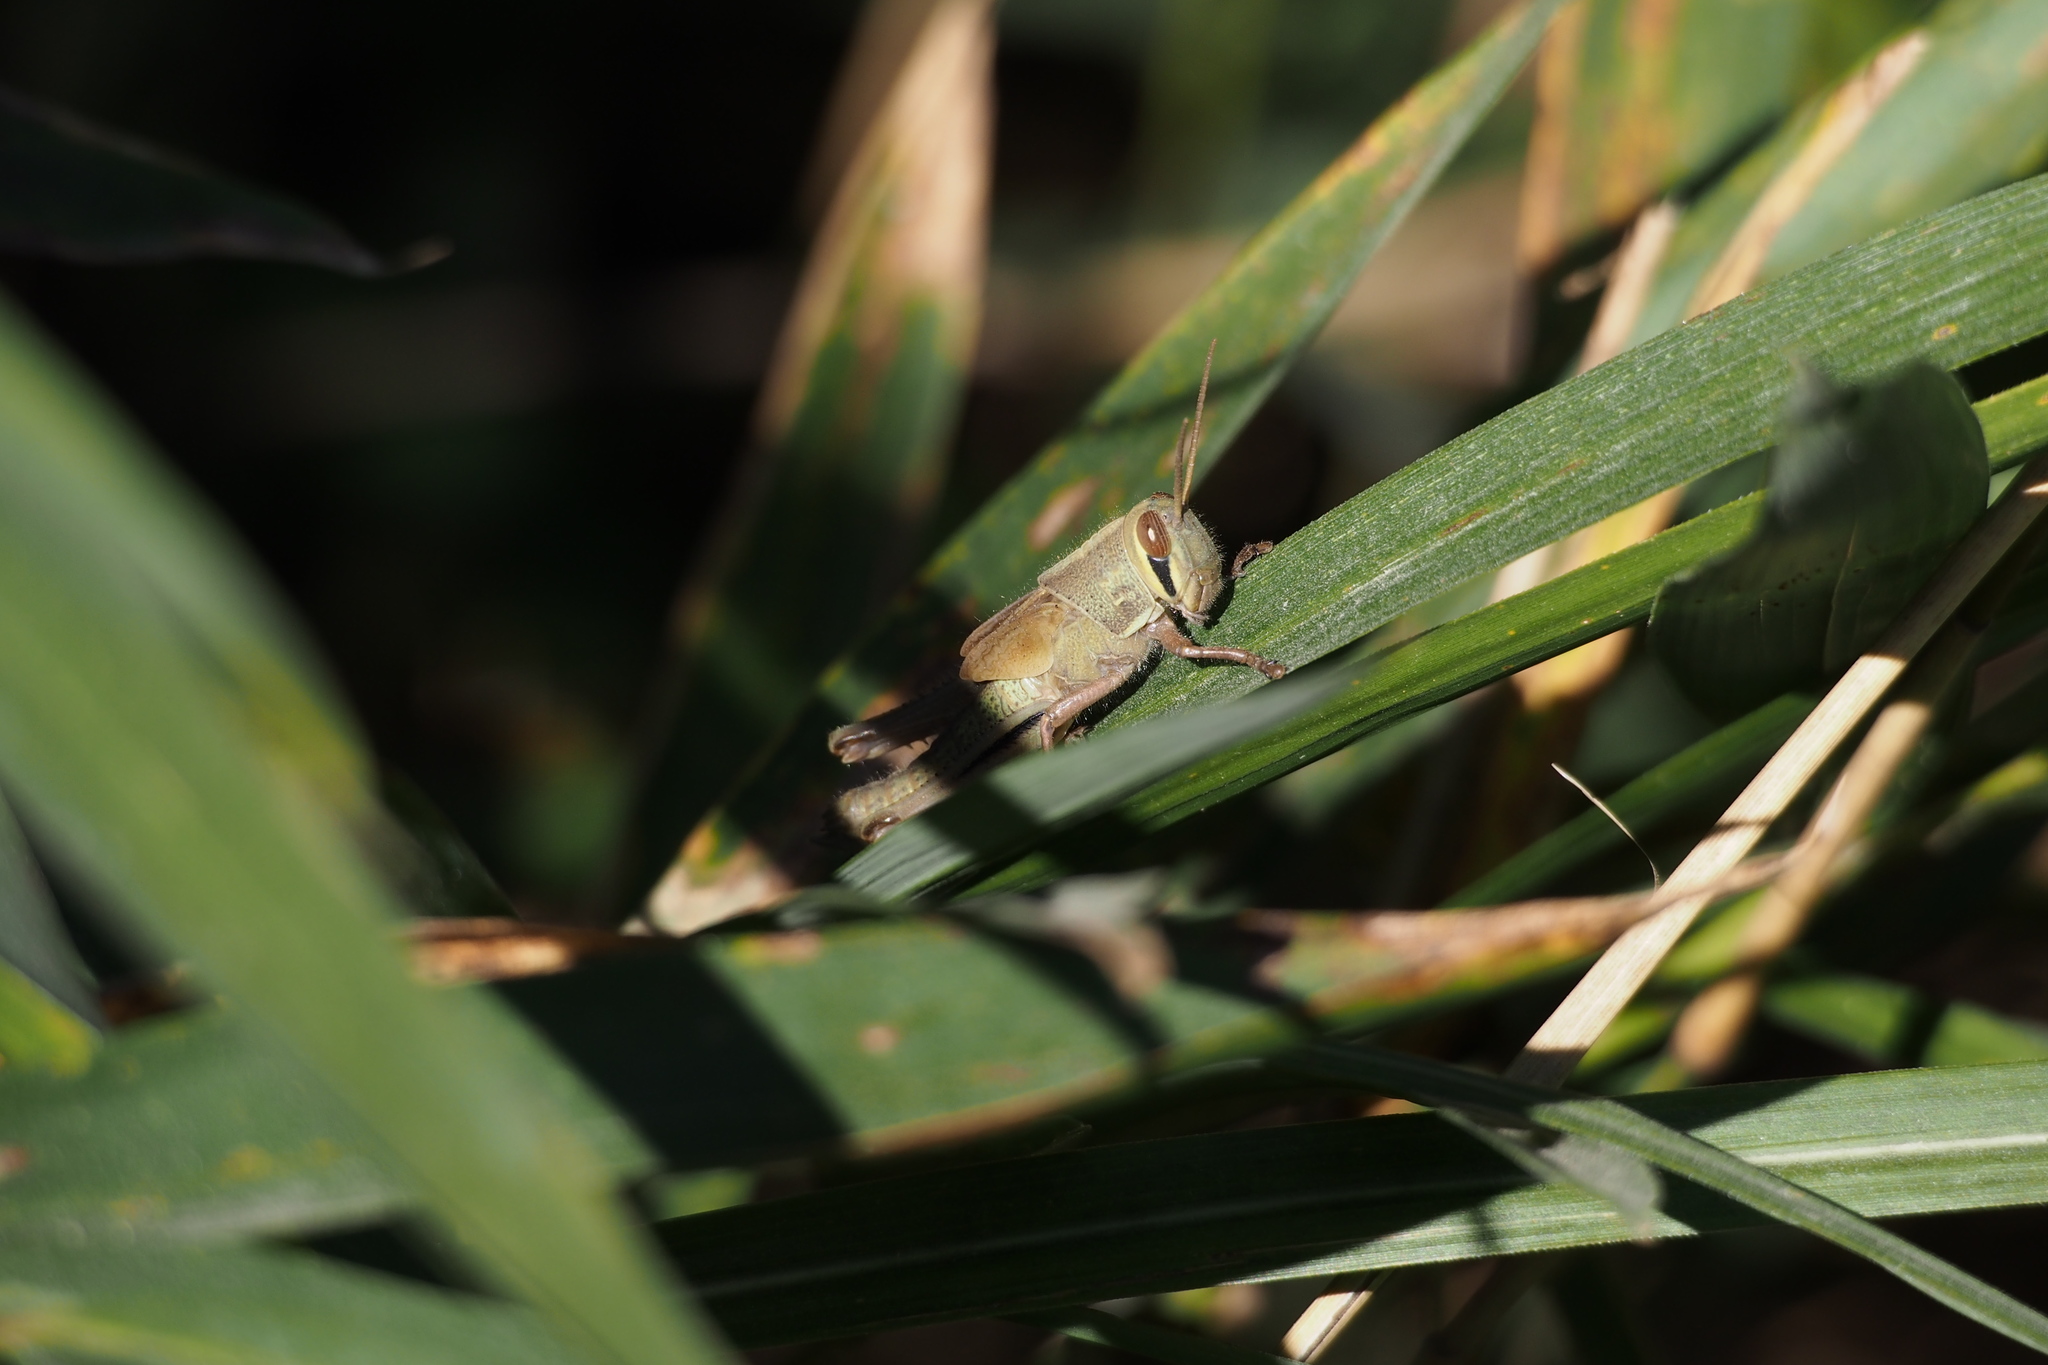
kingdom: Animalia
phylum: Arthropoda
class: Insecta
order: Orthoptera
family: Acrididae
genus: Patanga
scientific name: Patanga japonica
